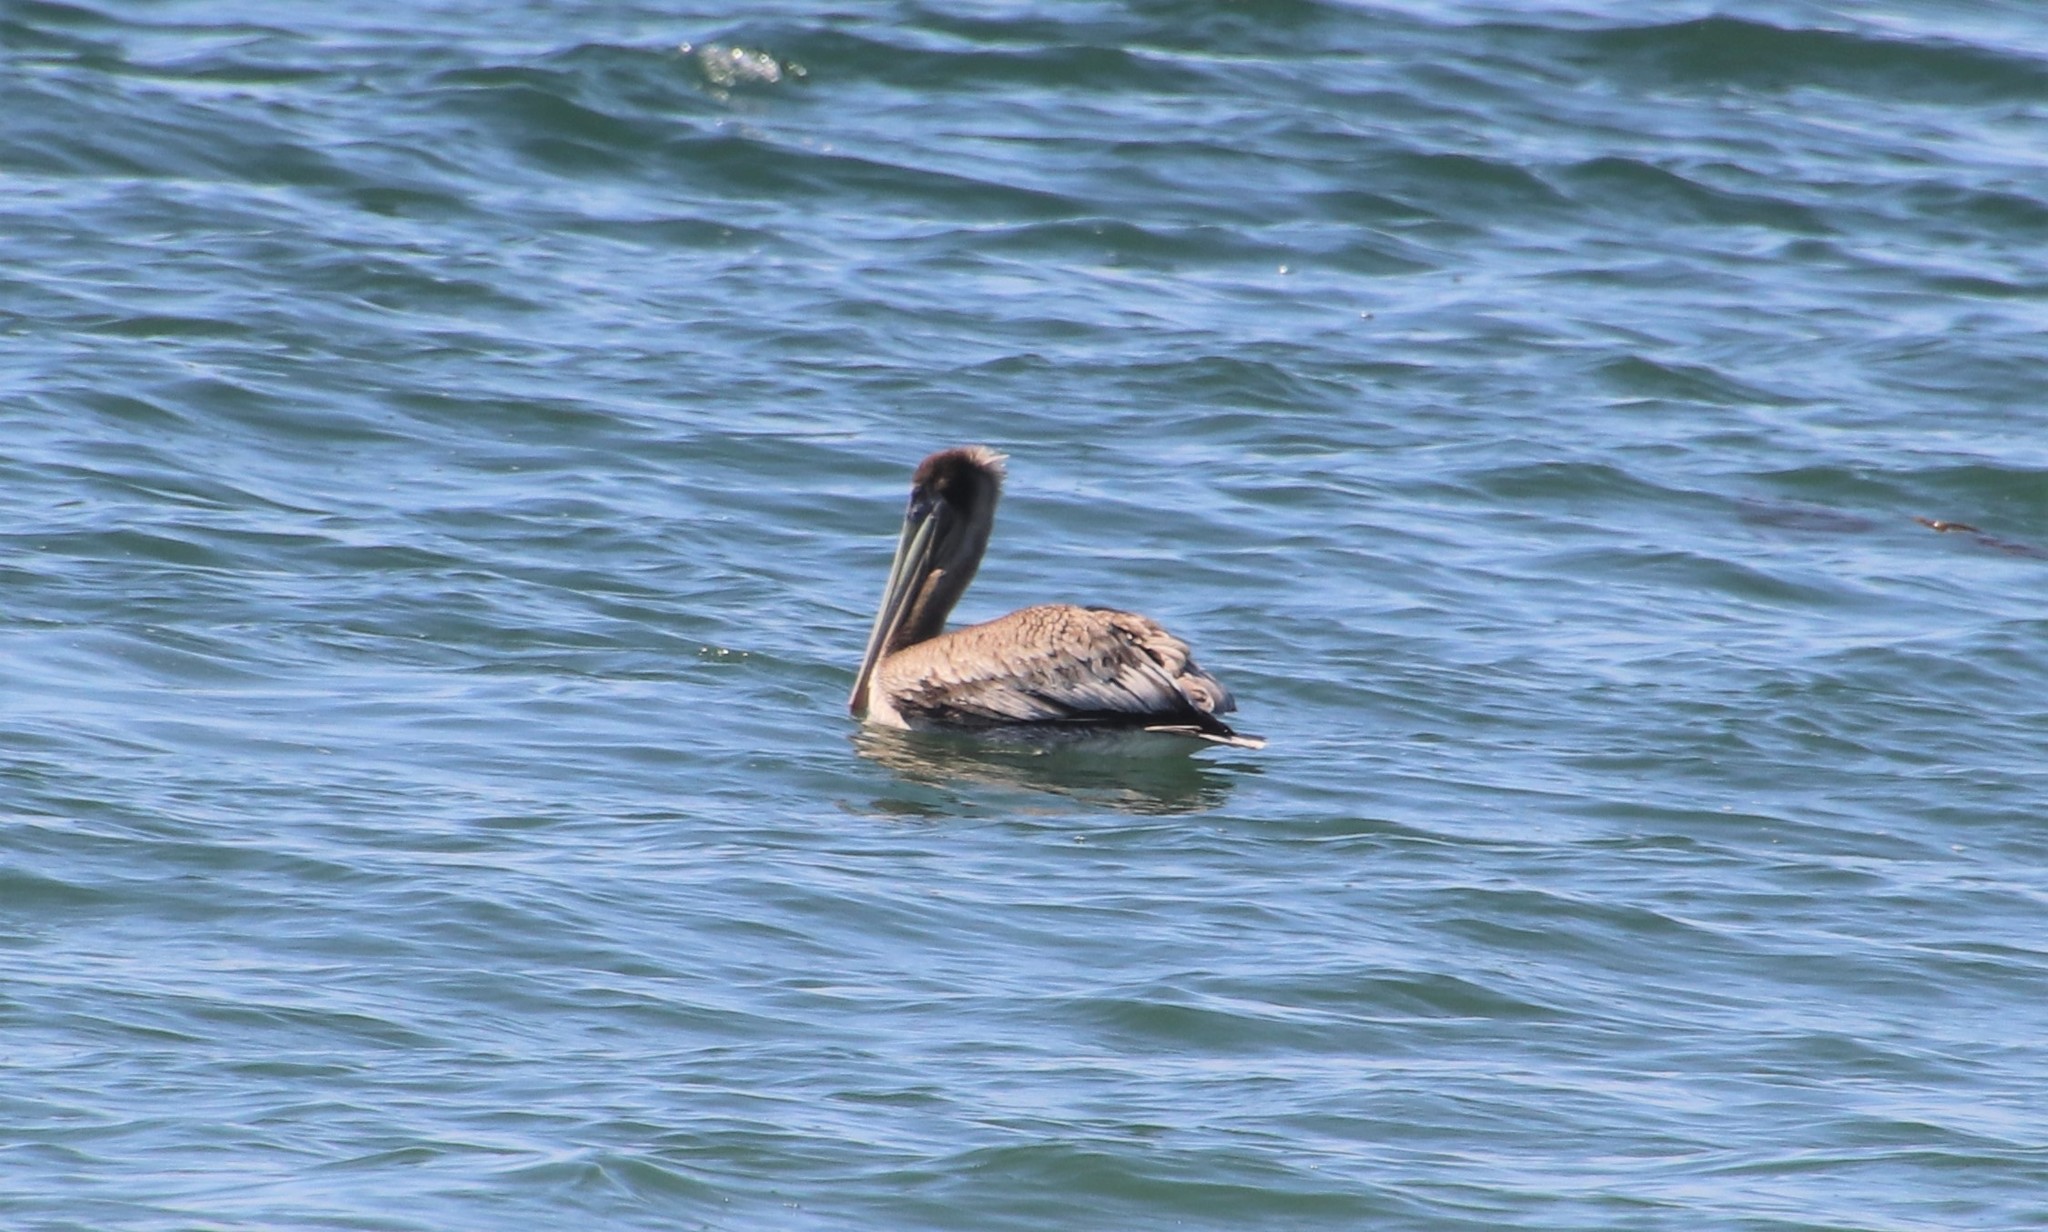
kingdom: Animalia
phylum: Chordata
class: Aves
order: Pelecaniformes
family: Pelecanidae
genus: Pelecanus
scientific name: Pelecanus occidentalis
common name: Brown pelican
